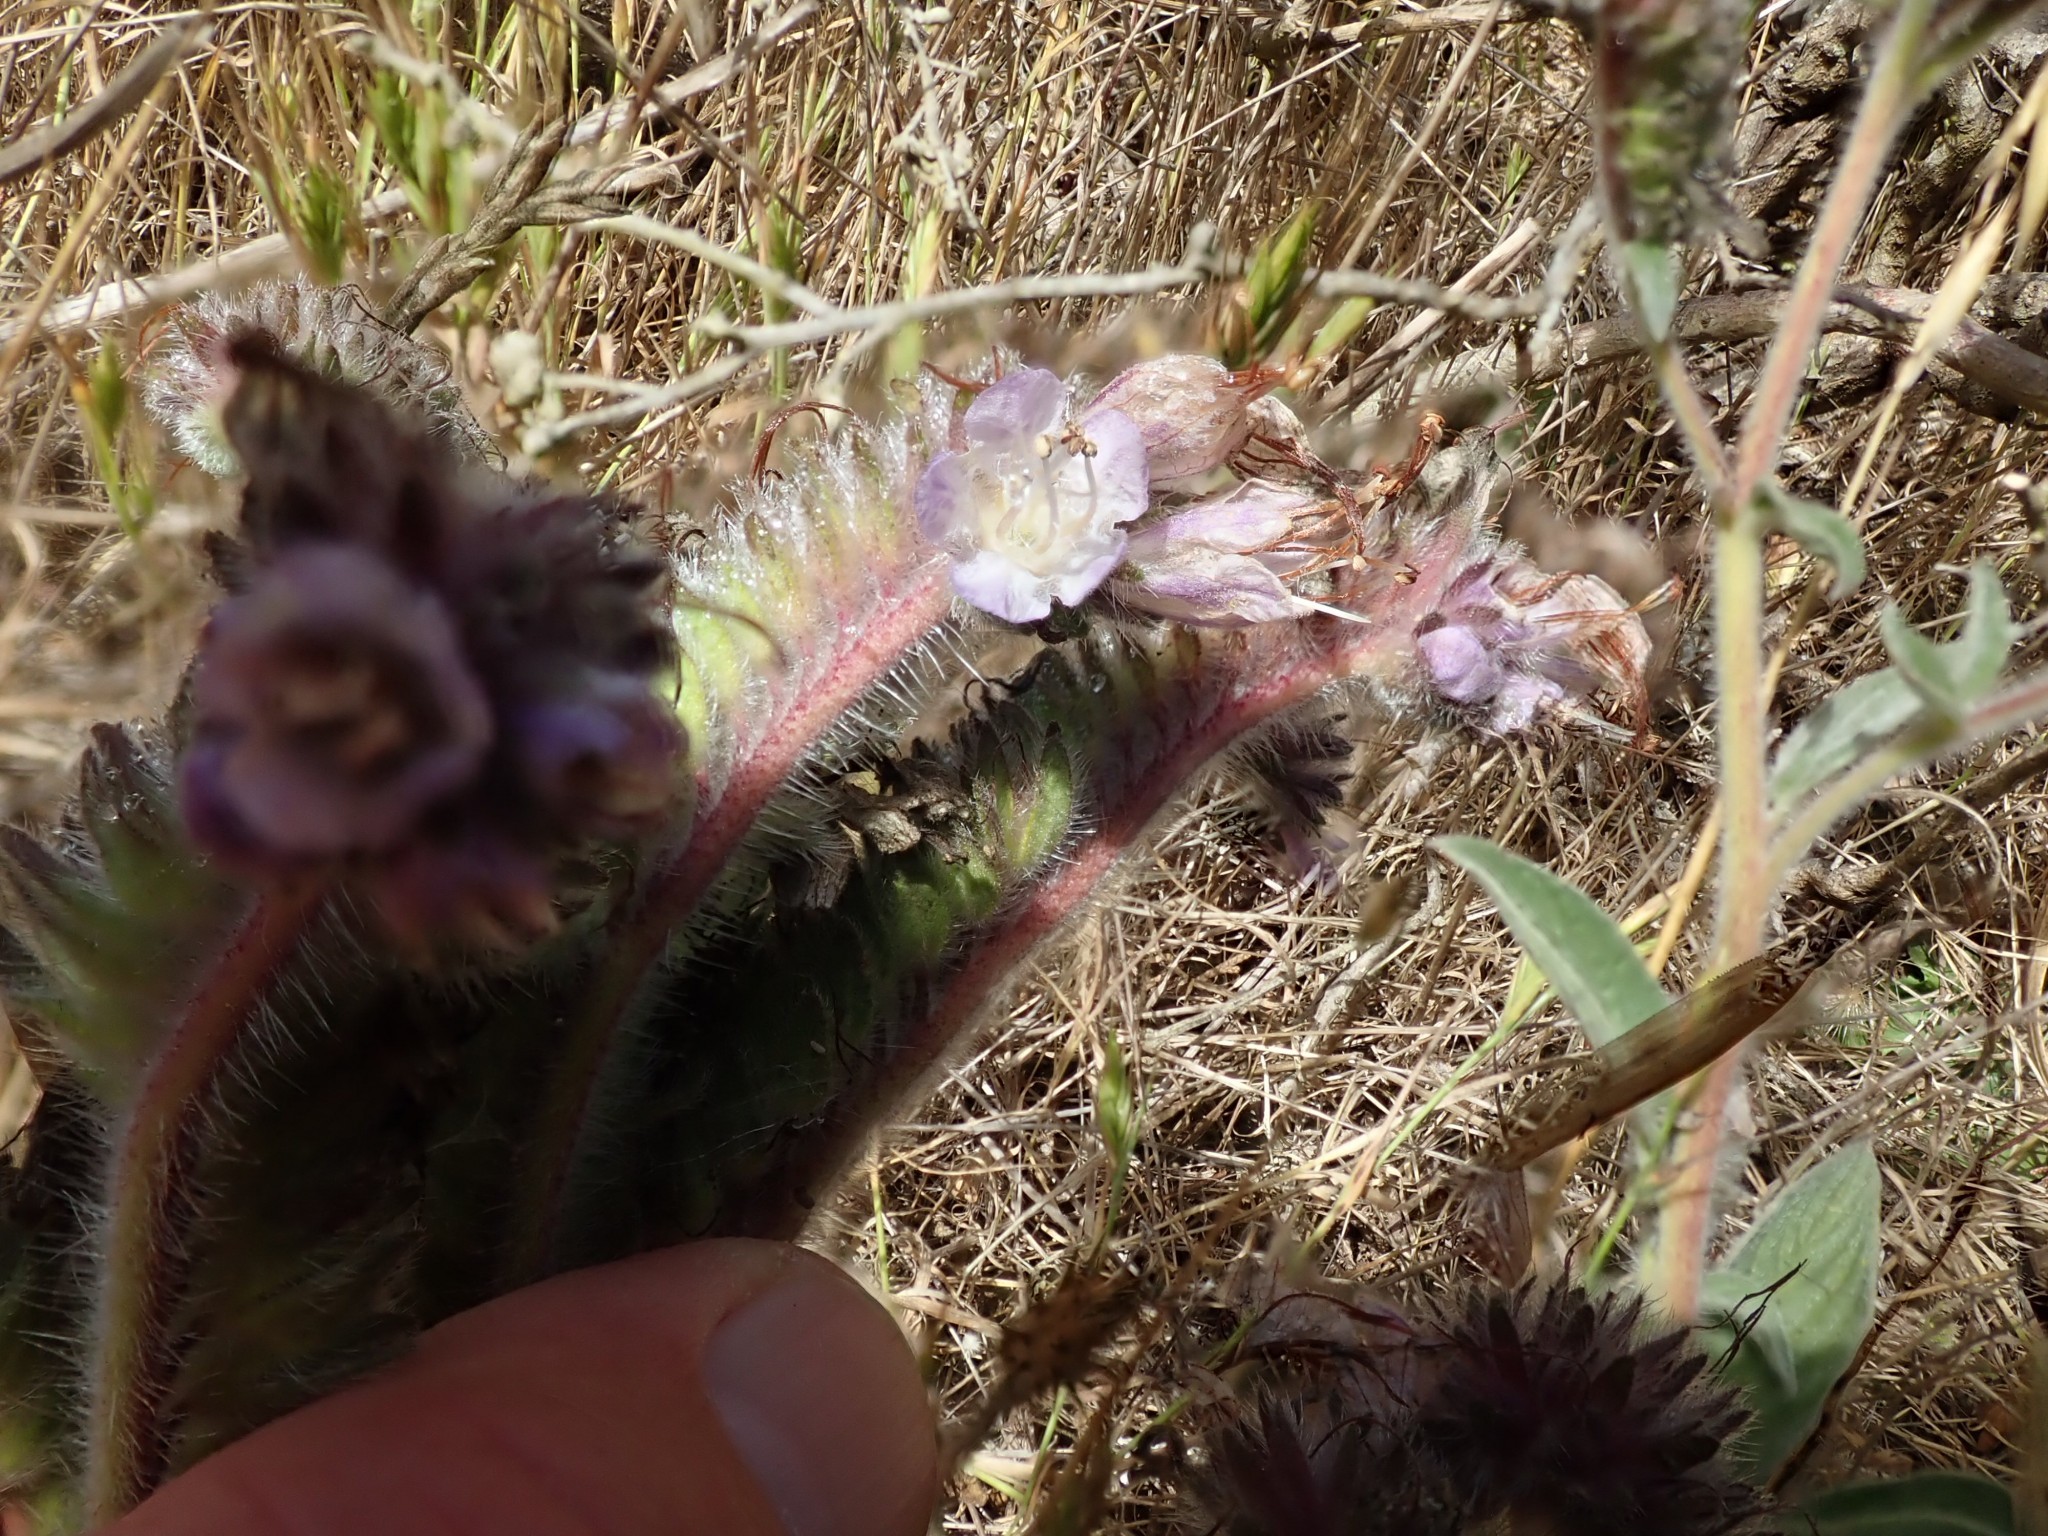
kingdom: Plantae
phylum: Tracheophyta
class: Magnoliopsida
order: Boraginales
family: Hydrophyllaceae
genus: Phacelia
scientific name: Phacelia californica
